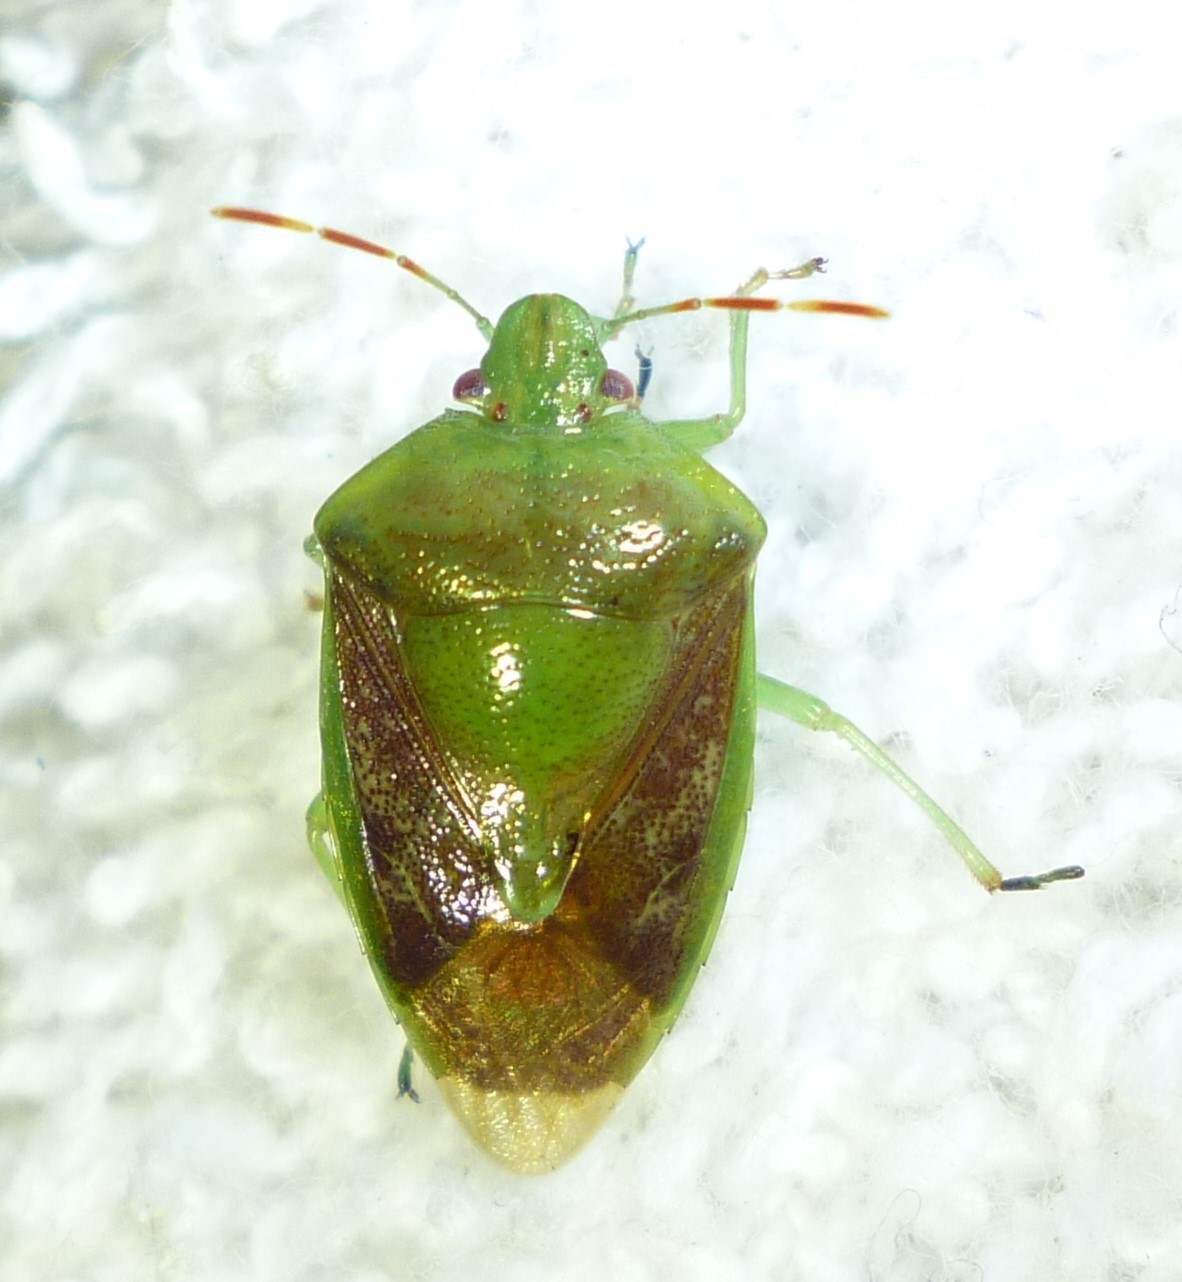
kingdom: Animalia
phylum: Arthropoda
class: Insecta
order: Hemiptera
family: Pentatomidae
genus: Banasa
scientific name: Banasa calva
